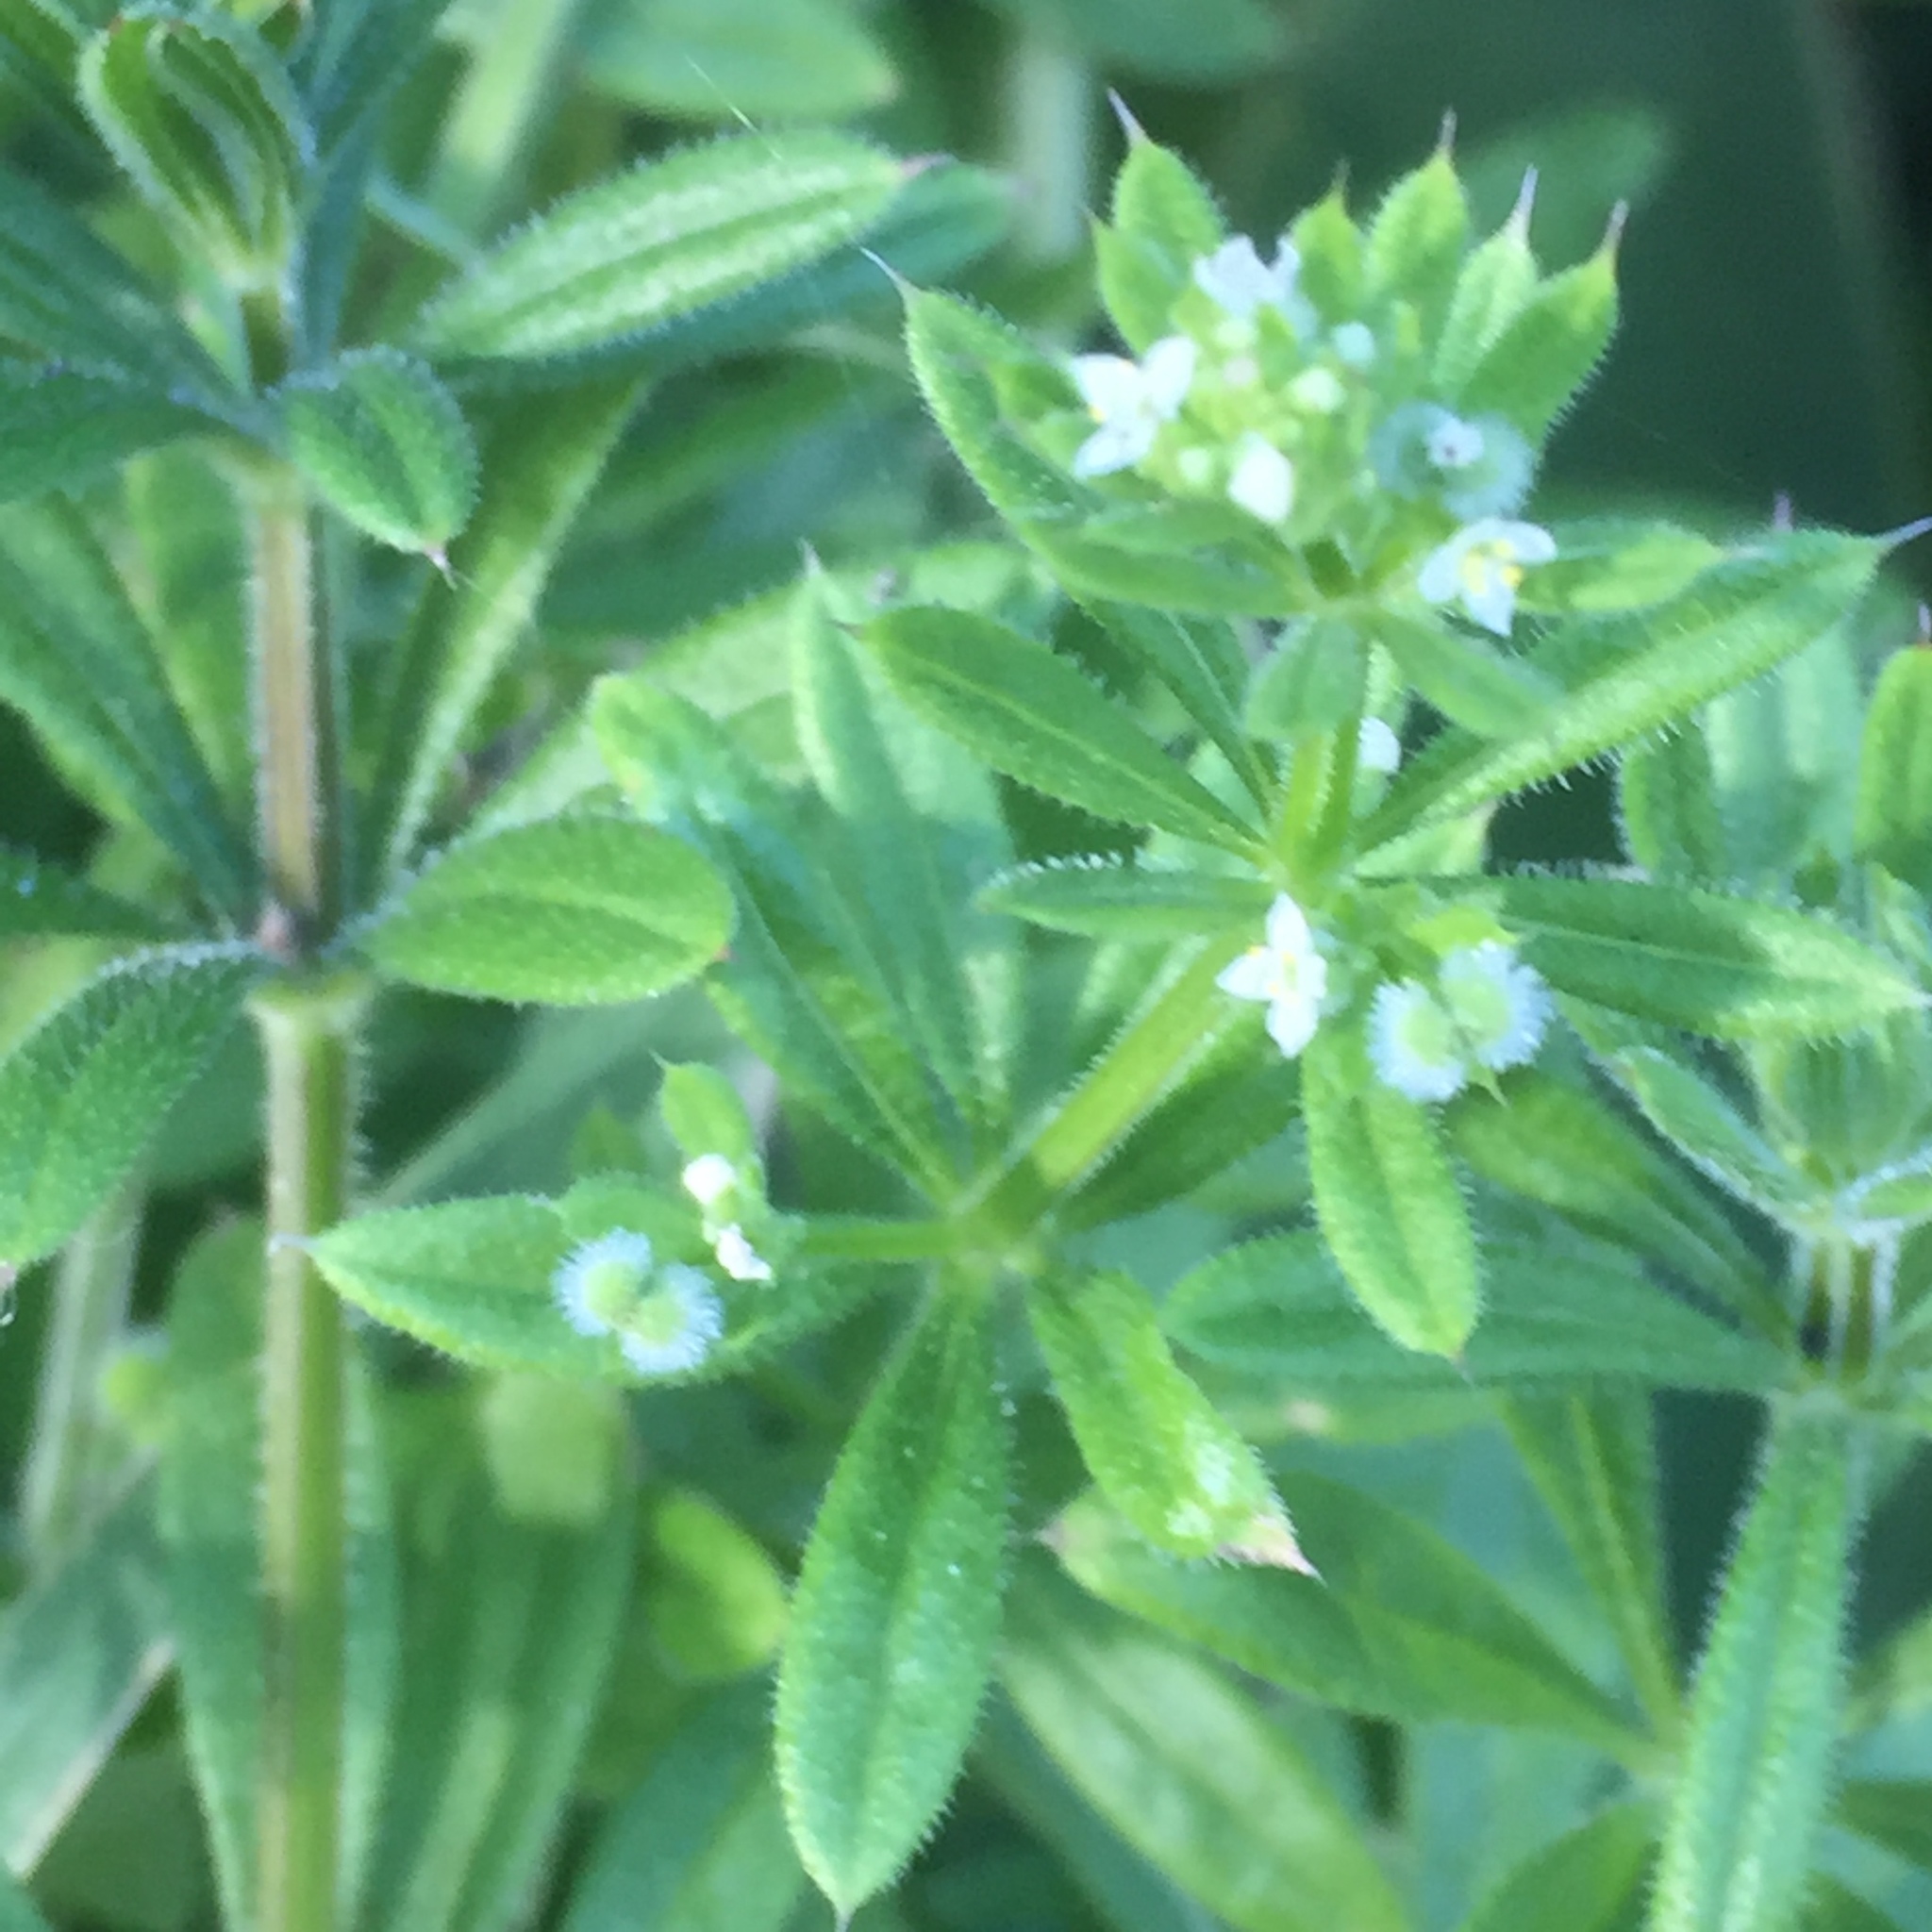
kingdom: Plantae
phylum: Tracheophyta
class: Magnoliopsida
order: Gentianales
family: Rubiaceae
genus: Galium
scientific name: Galium aparine
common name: Cleavers
